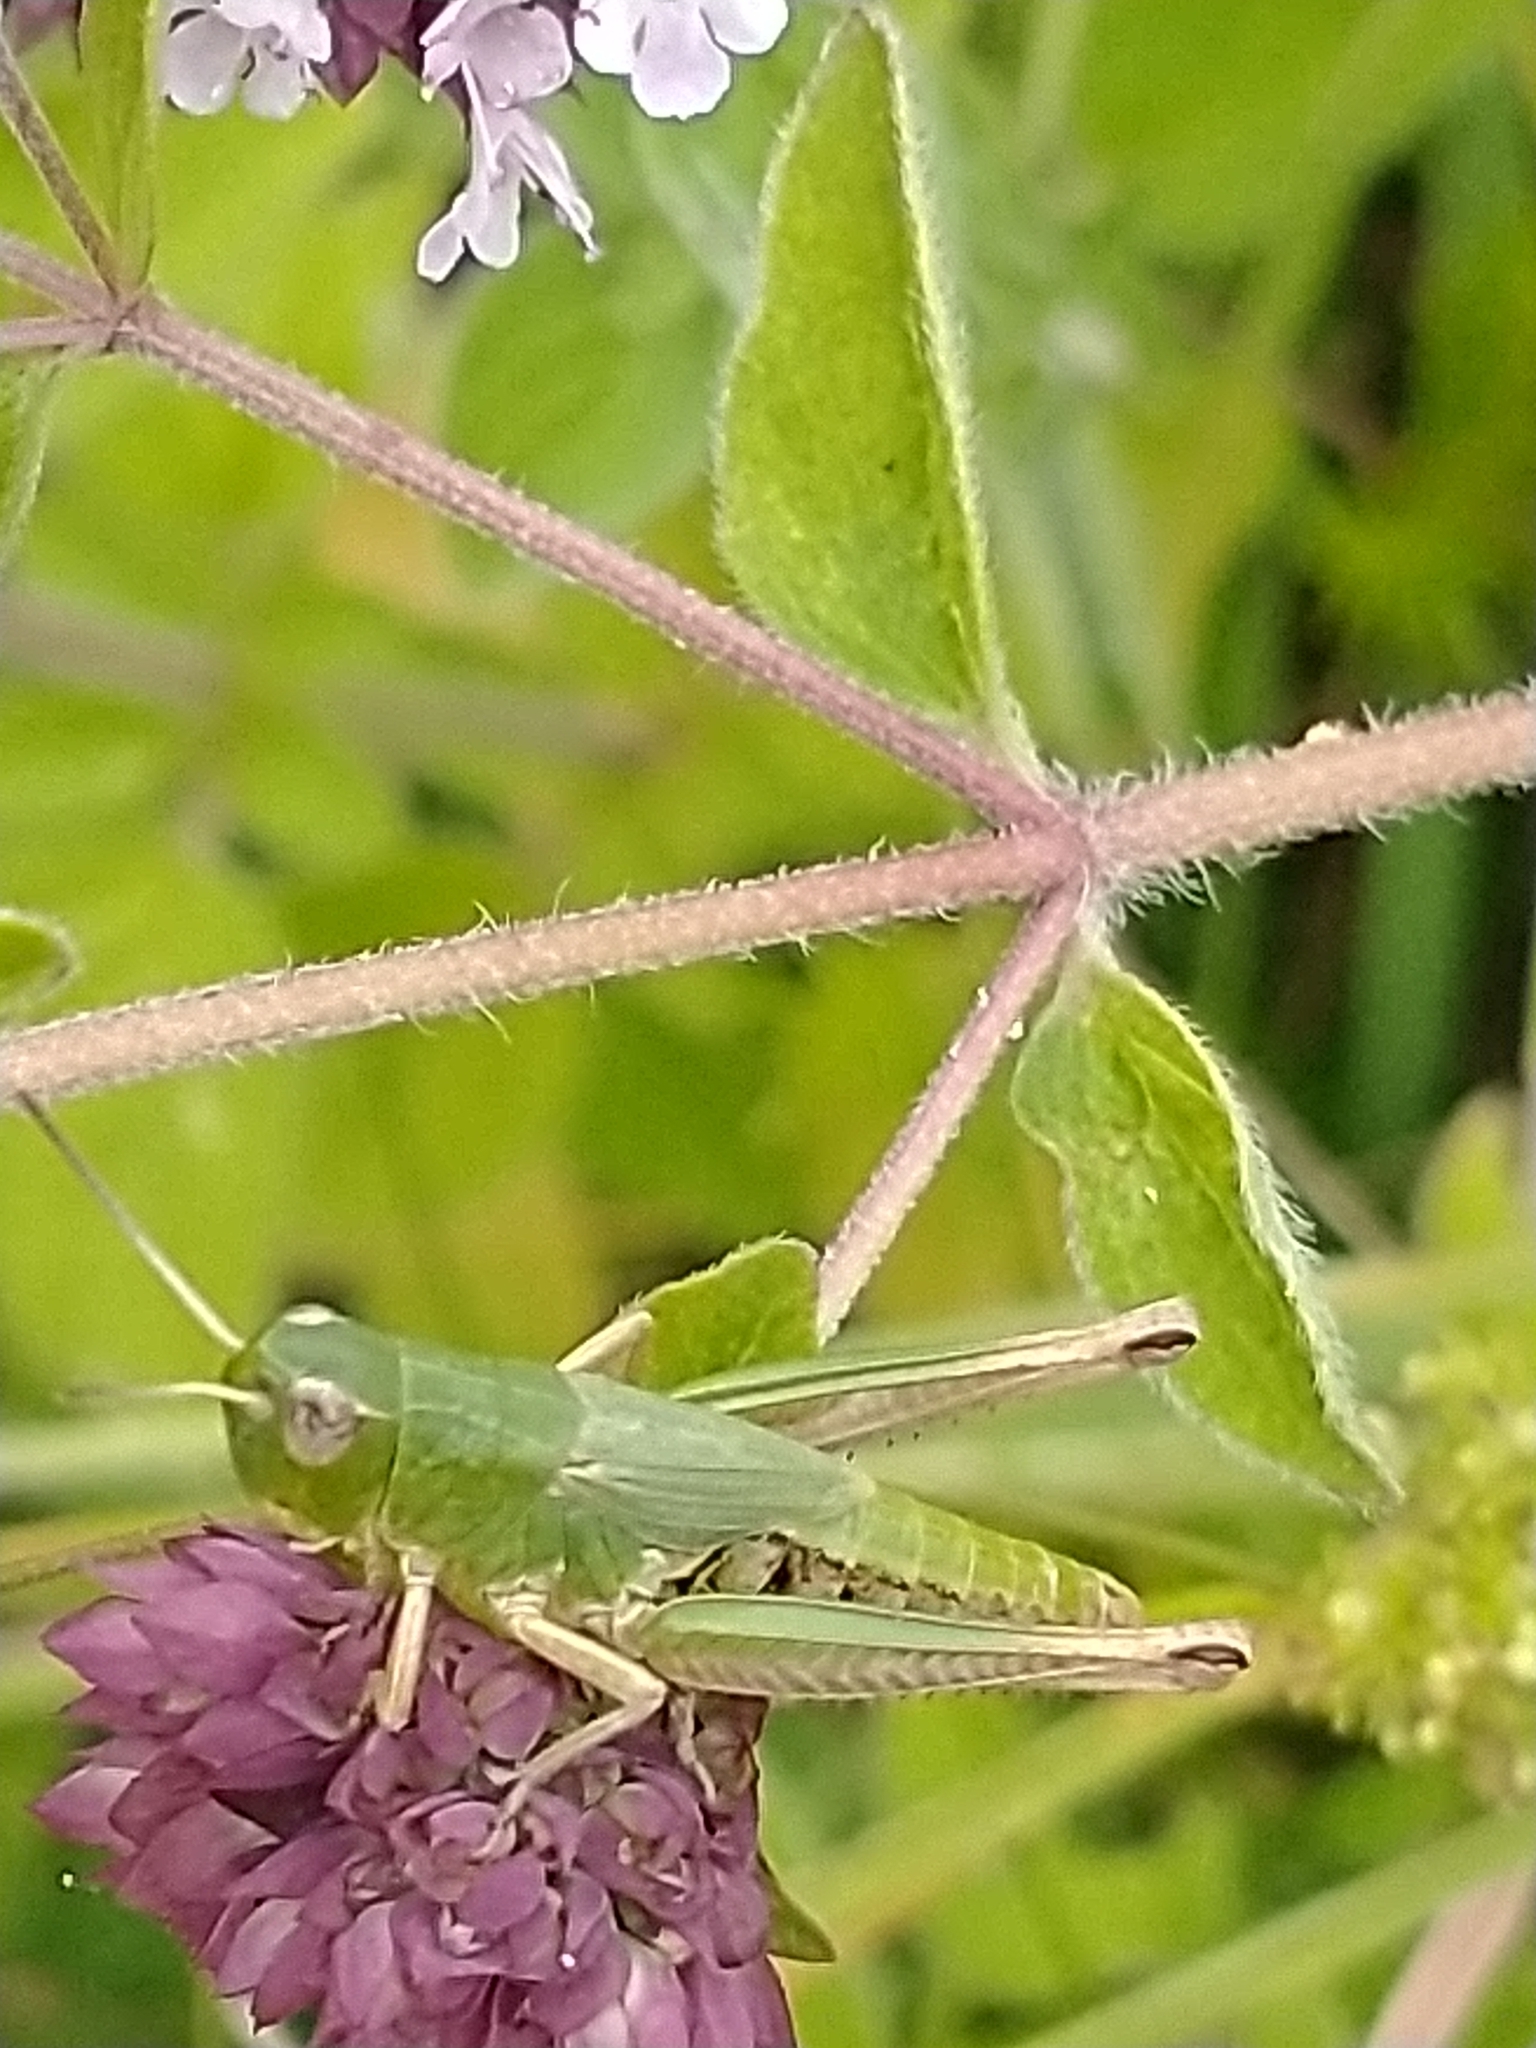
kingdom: Animalia
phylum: Arthropoda
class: Insecta
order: Orthoptera
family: Acrididae
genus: Pseudochorthippus
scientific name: Pseudochorthippus parallelus
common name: Meadow grasshopper
